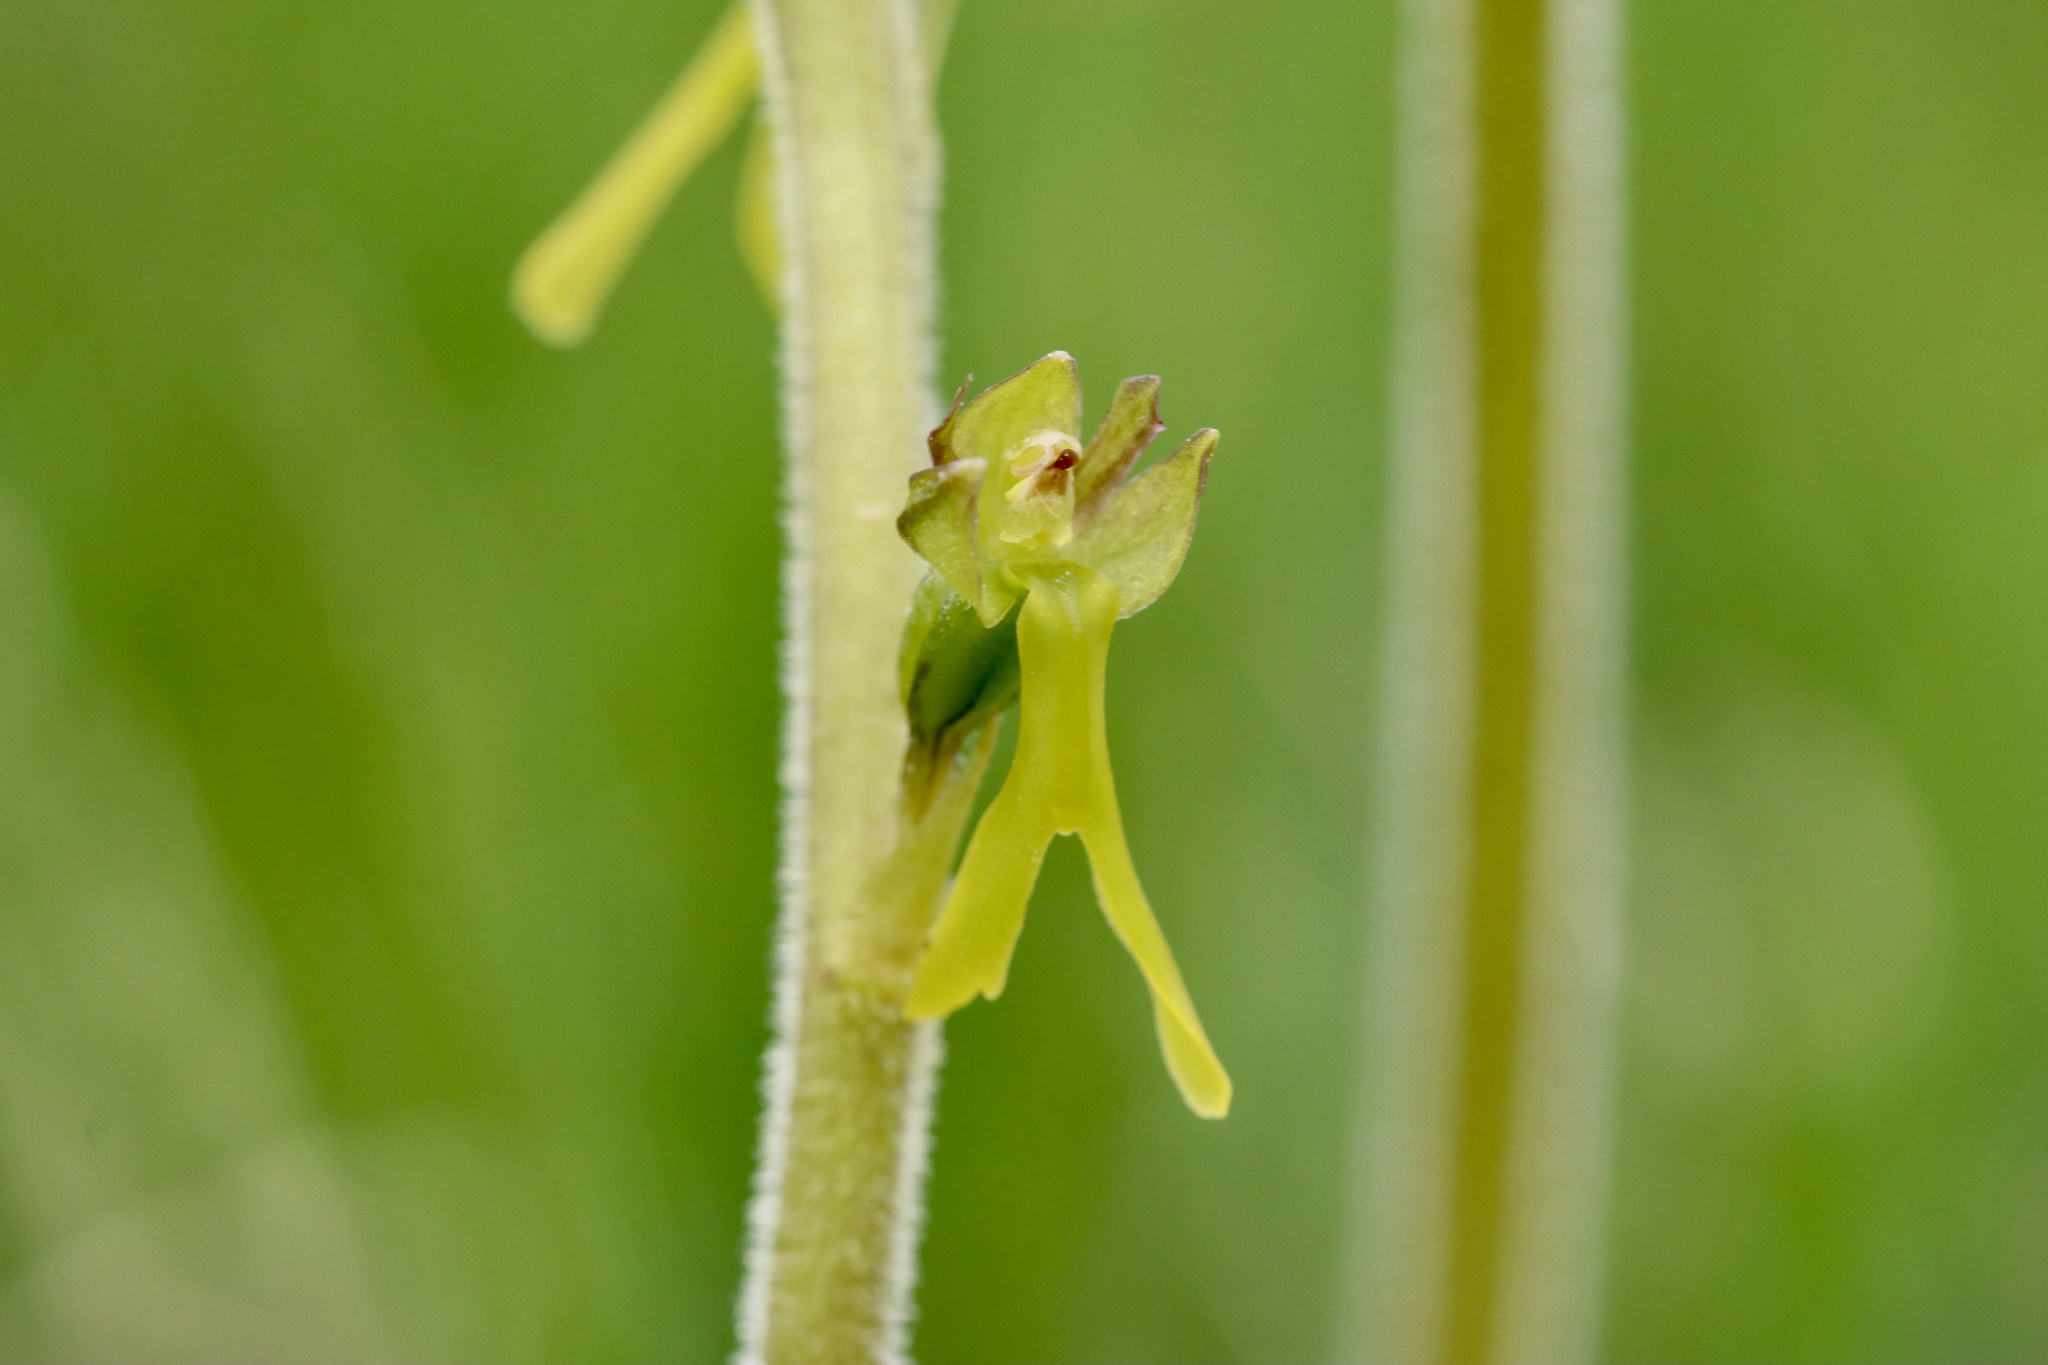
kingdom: Plantae
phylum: Tracheophyta
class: Liliopsida
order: Asparagales
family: Orchidaceae
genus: Neottia
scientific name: Neottia ovata
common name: Common twayblade
